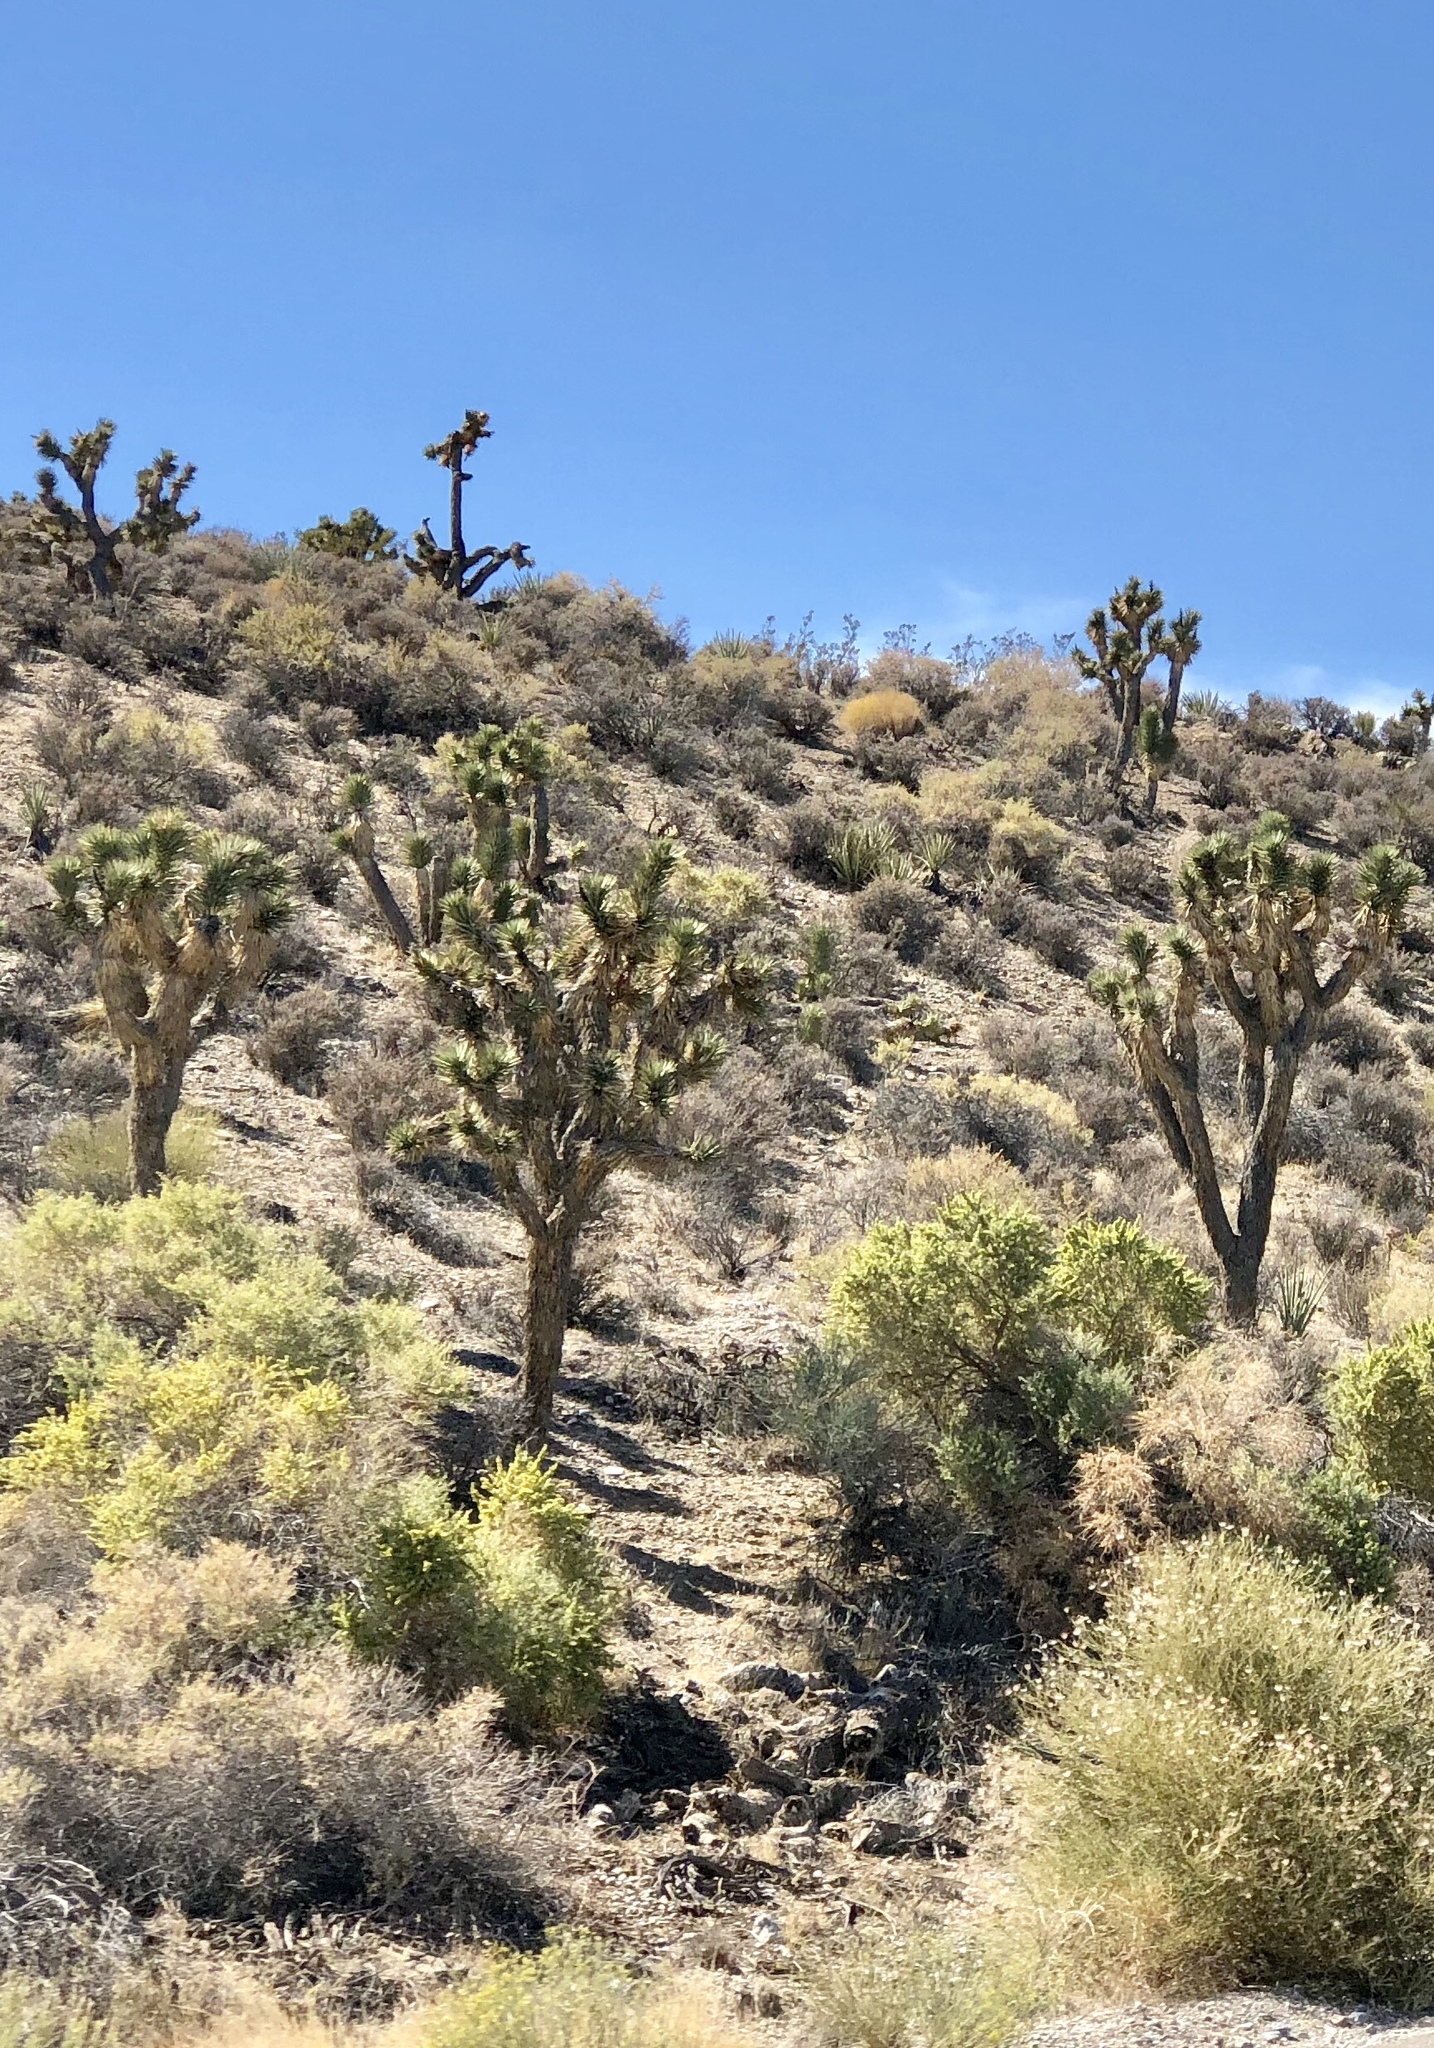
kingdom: Plantae
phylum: Tracheophyta
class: Liliopsida
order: Asparagales
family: Asparagaceae
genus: Yucca
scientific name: Yucca brevifolia
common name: Joshua tree
